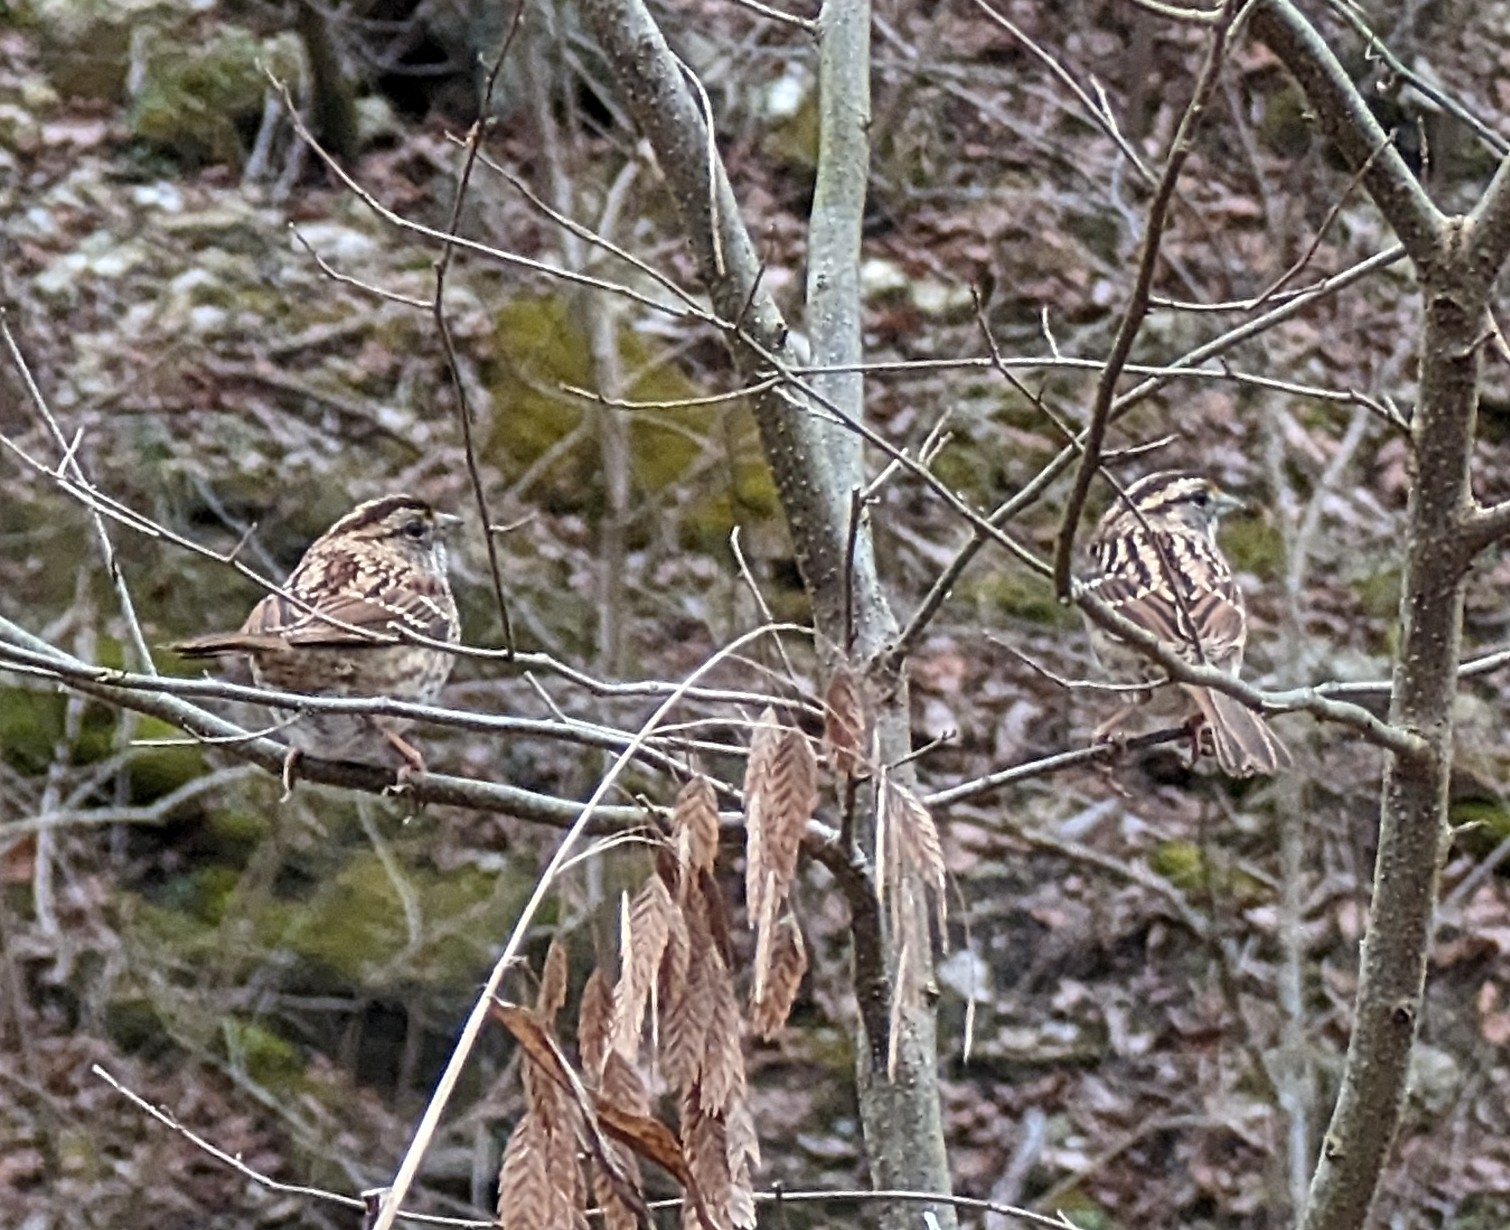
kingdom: Animalia
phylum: Chordata
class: Aves
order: Passeriformes
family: Passerellidae
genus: Zonotrichia
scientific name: Zonotrichia albicollis
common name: White-throated sparrow
